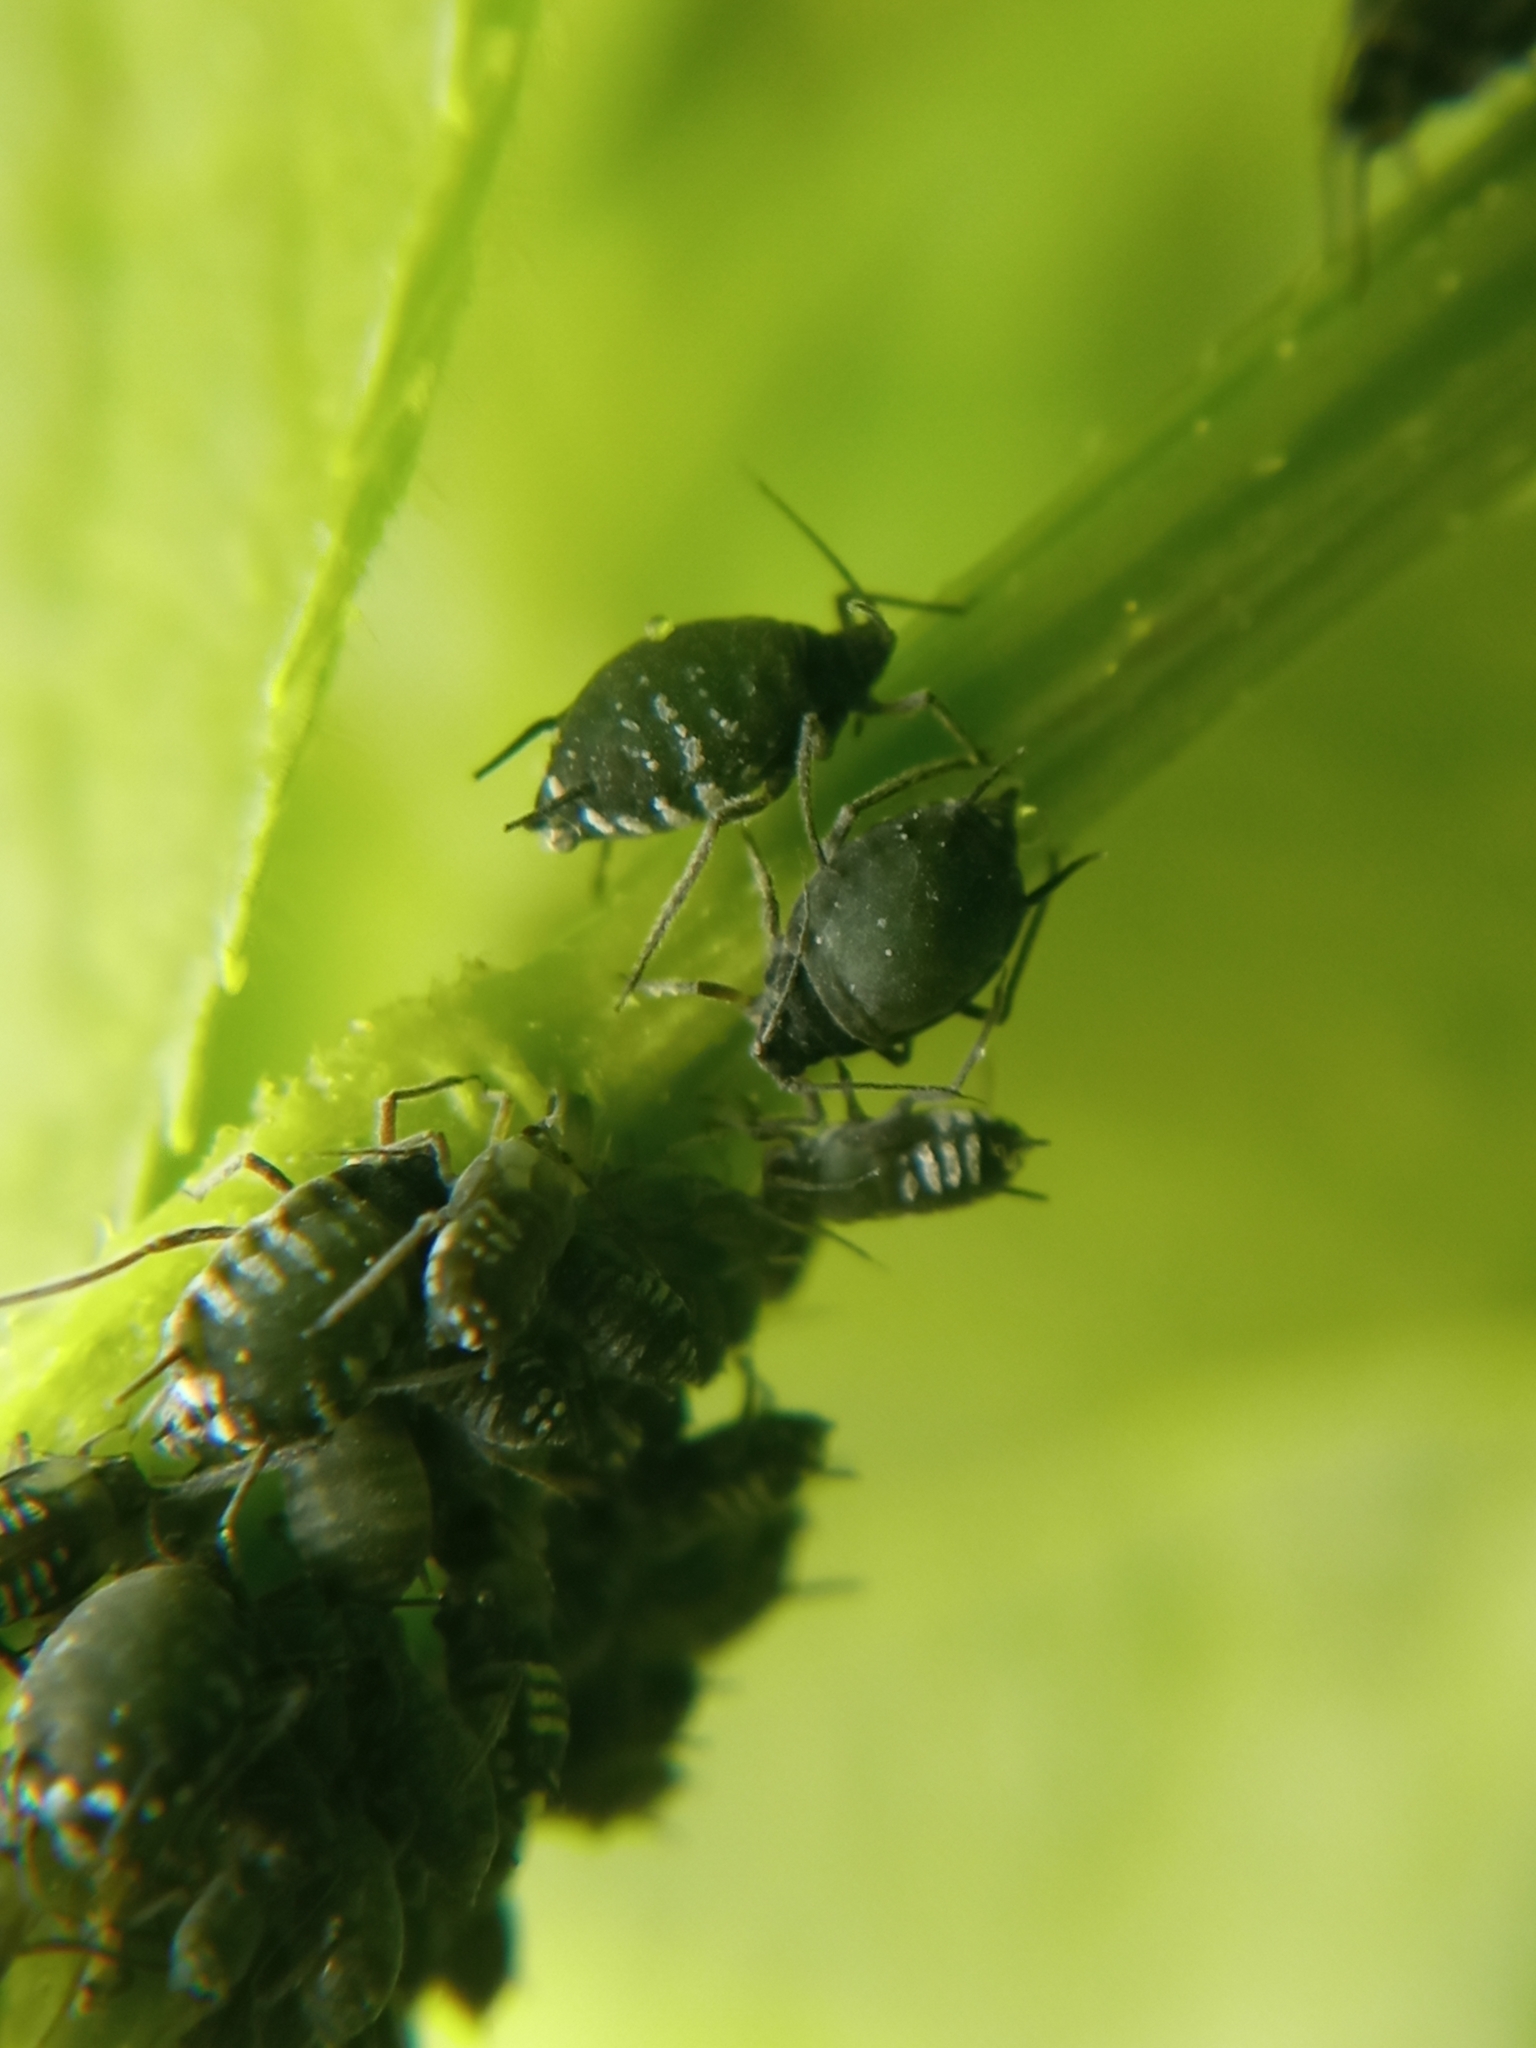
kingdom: Animalia
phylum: Arthropoda
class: Insecta
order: Hemiptera
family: Aphididae
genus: Aphis
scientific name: Aphis sambuci
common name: Elder aphid
